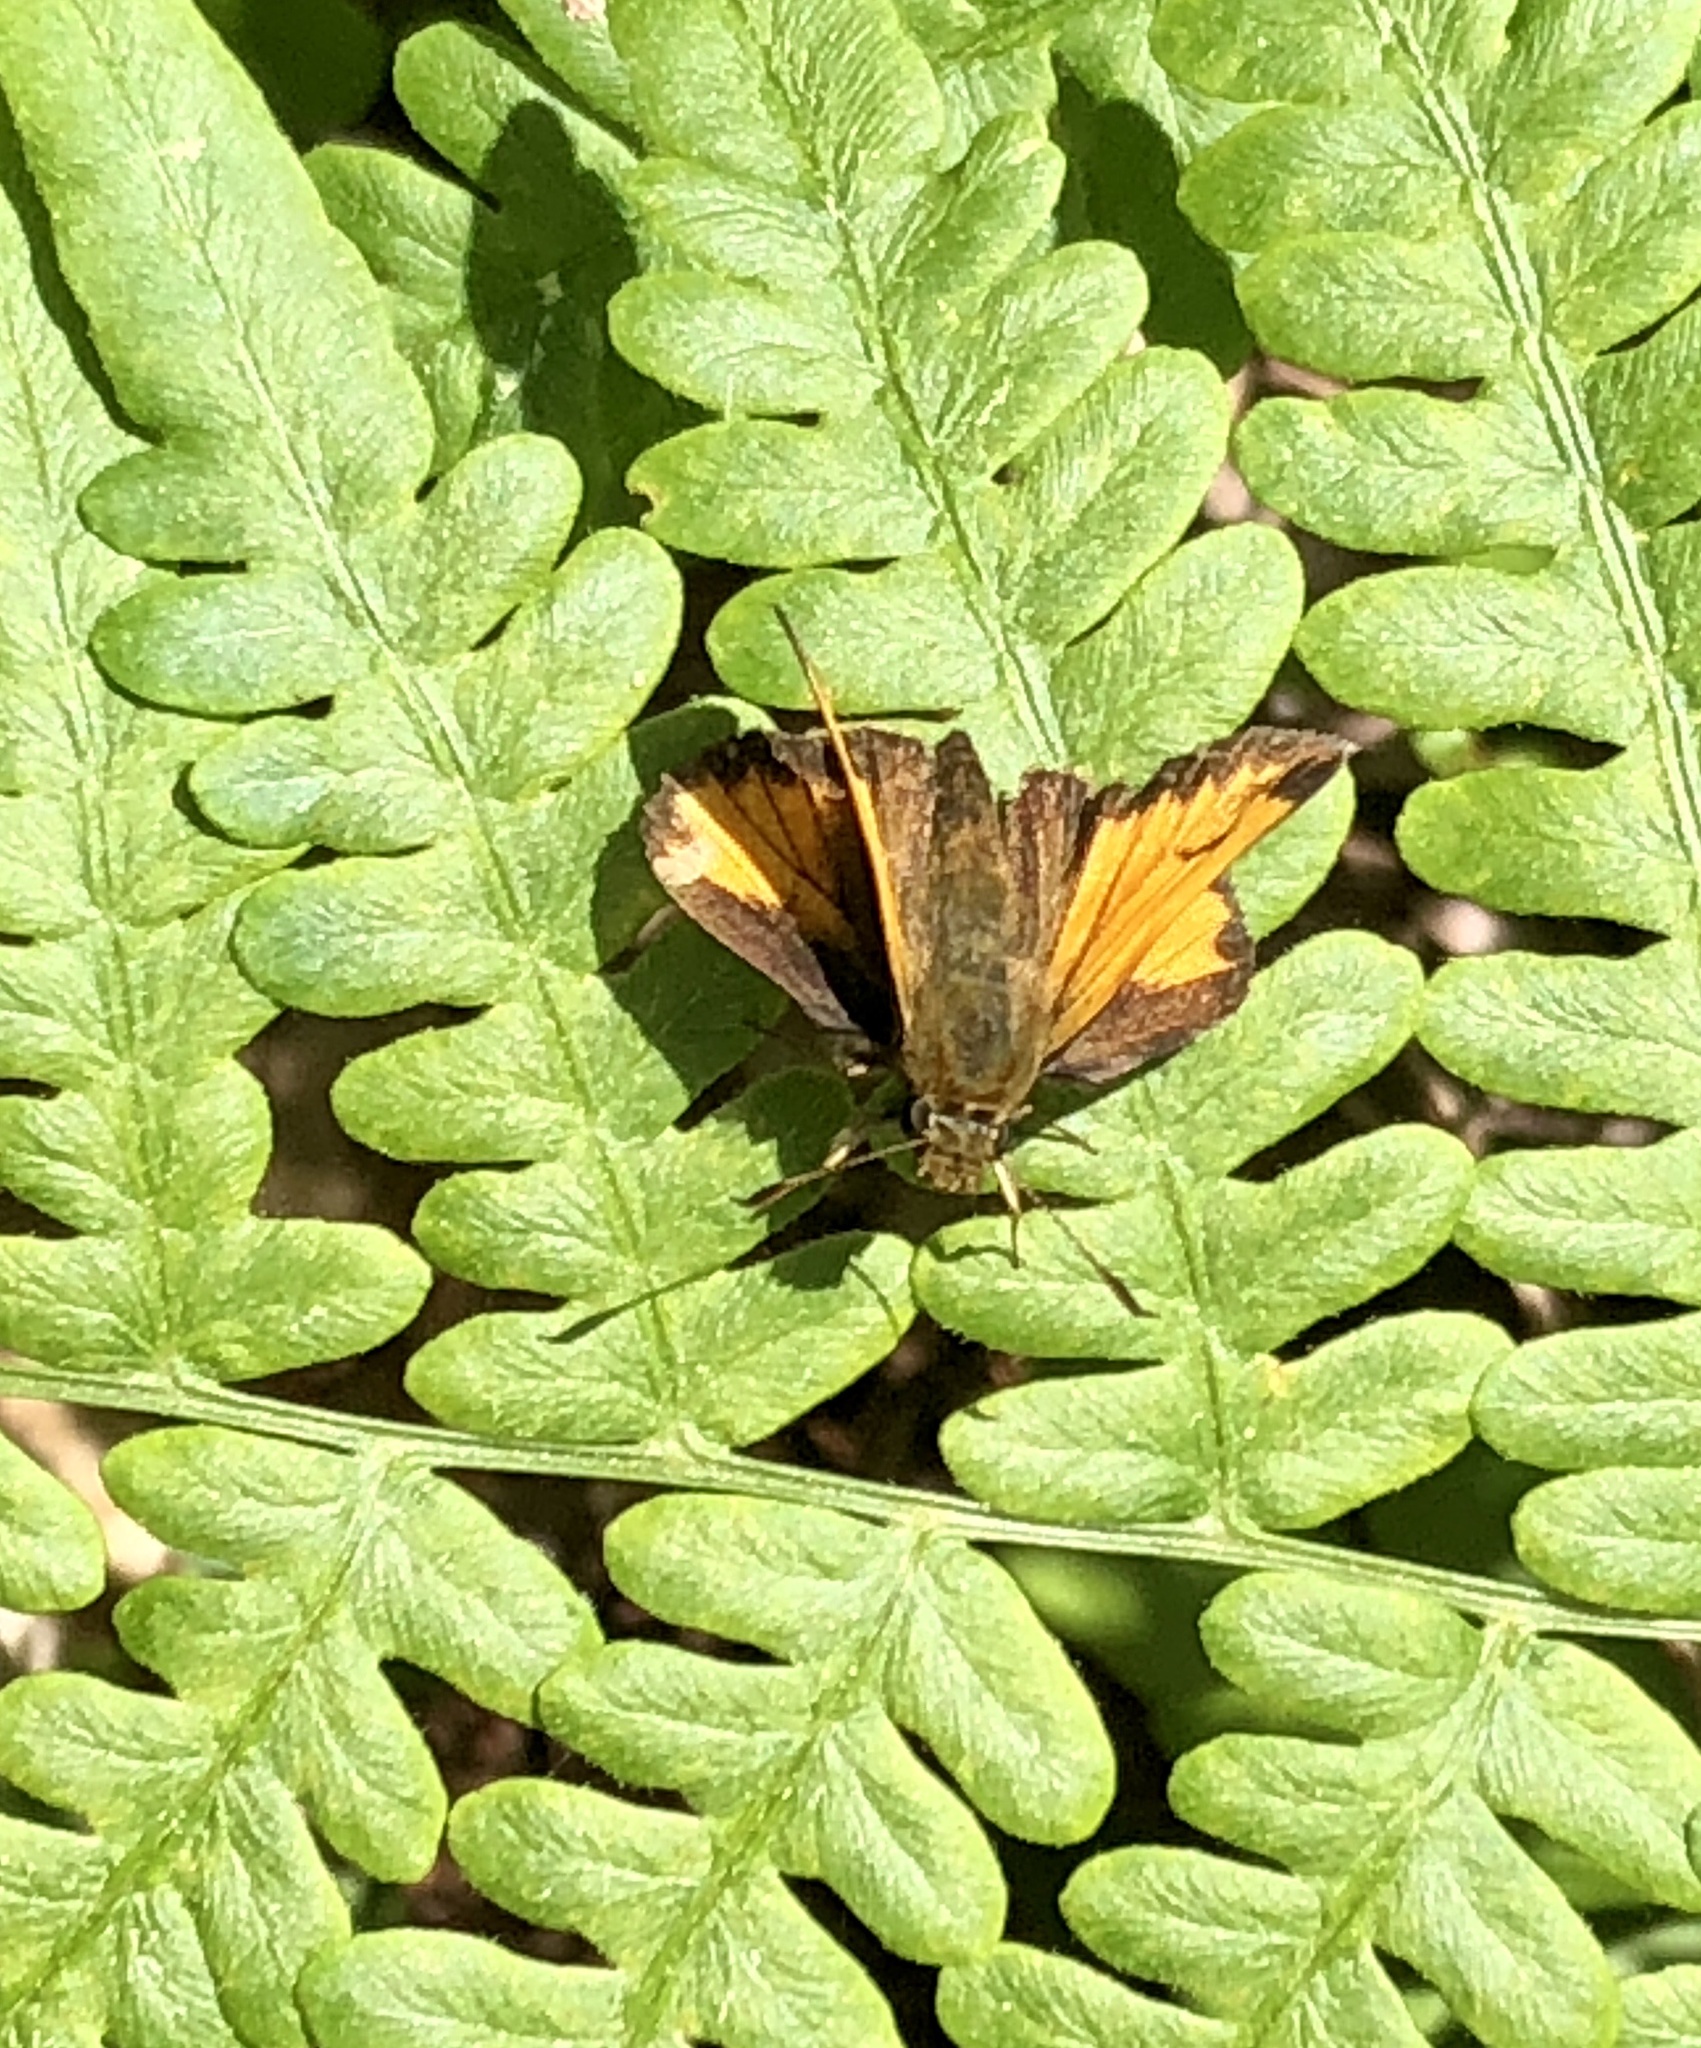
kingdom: Animalia
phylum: Arthropoda
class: Insecta
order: Lepidoptera
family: Hesperiidae
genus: Lon
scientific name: Lon hobomok
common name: Hobomok skipper
